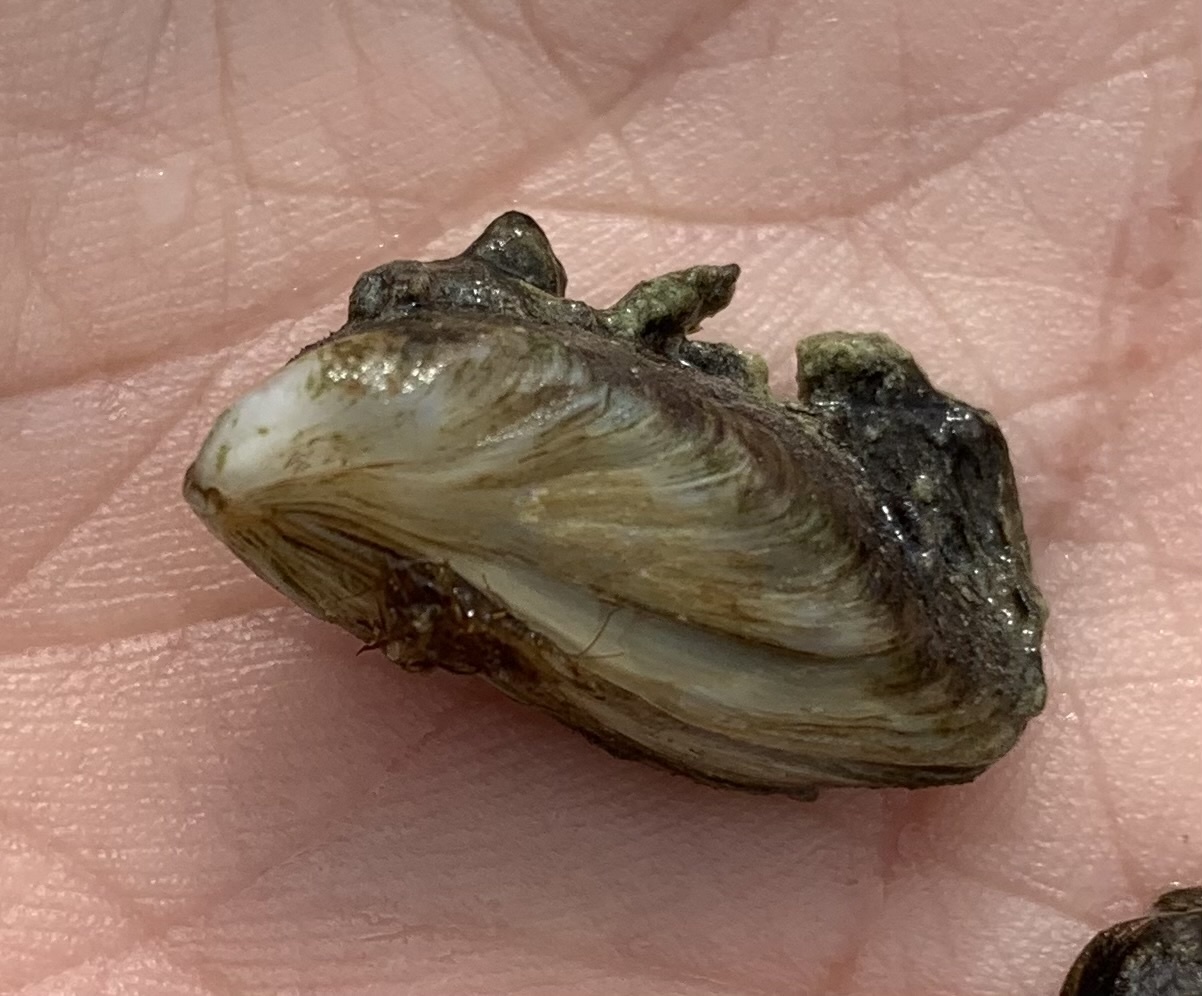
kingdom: Animalia
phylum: Mollusca
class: Bivalvia
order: Myida
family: Dreissenidae
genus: Dreissena
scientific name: Dreissena bugensis
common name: Quagga mussel
